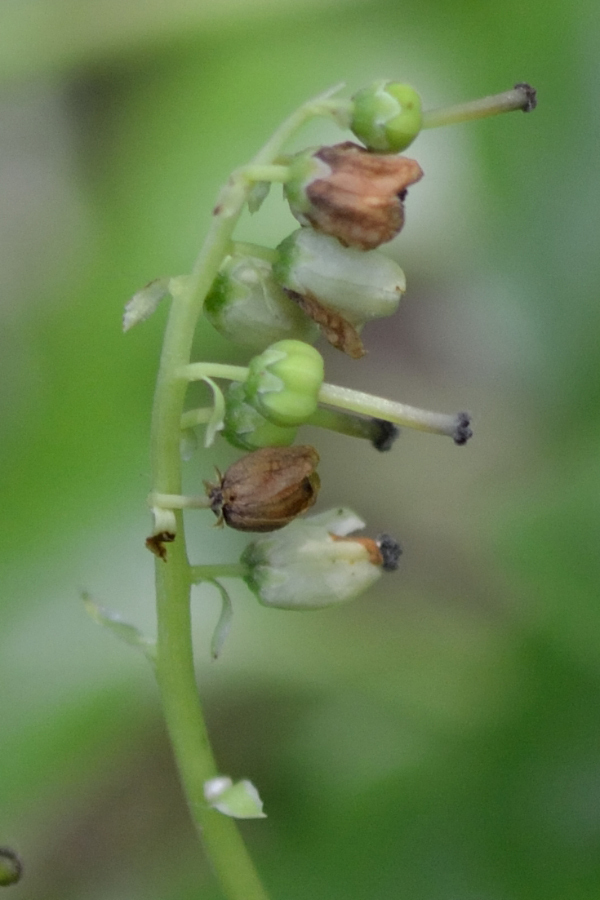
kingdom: Plantae
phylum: Tracheophyta
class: Magnoliopsida
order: Ericales
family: Ericaceae
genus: Orthilia
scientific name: Orthilia secunda
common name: One-sided orthilia
